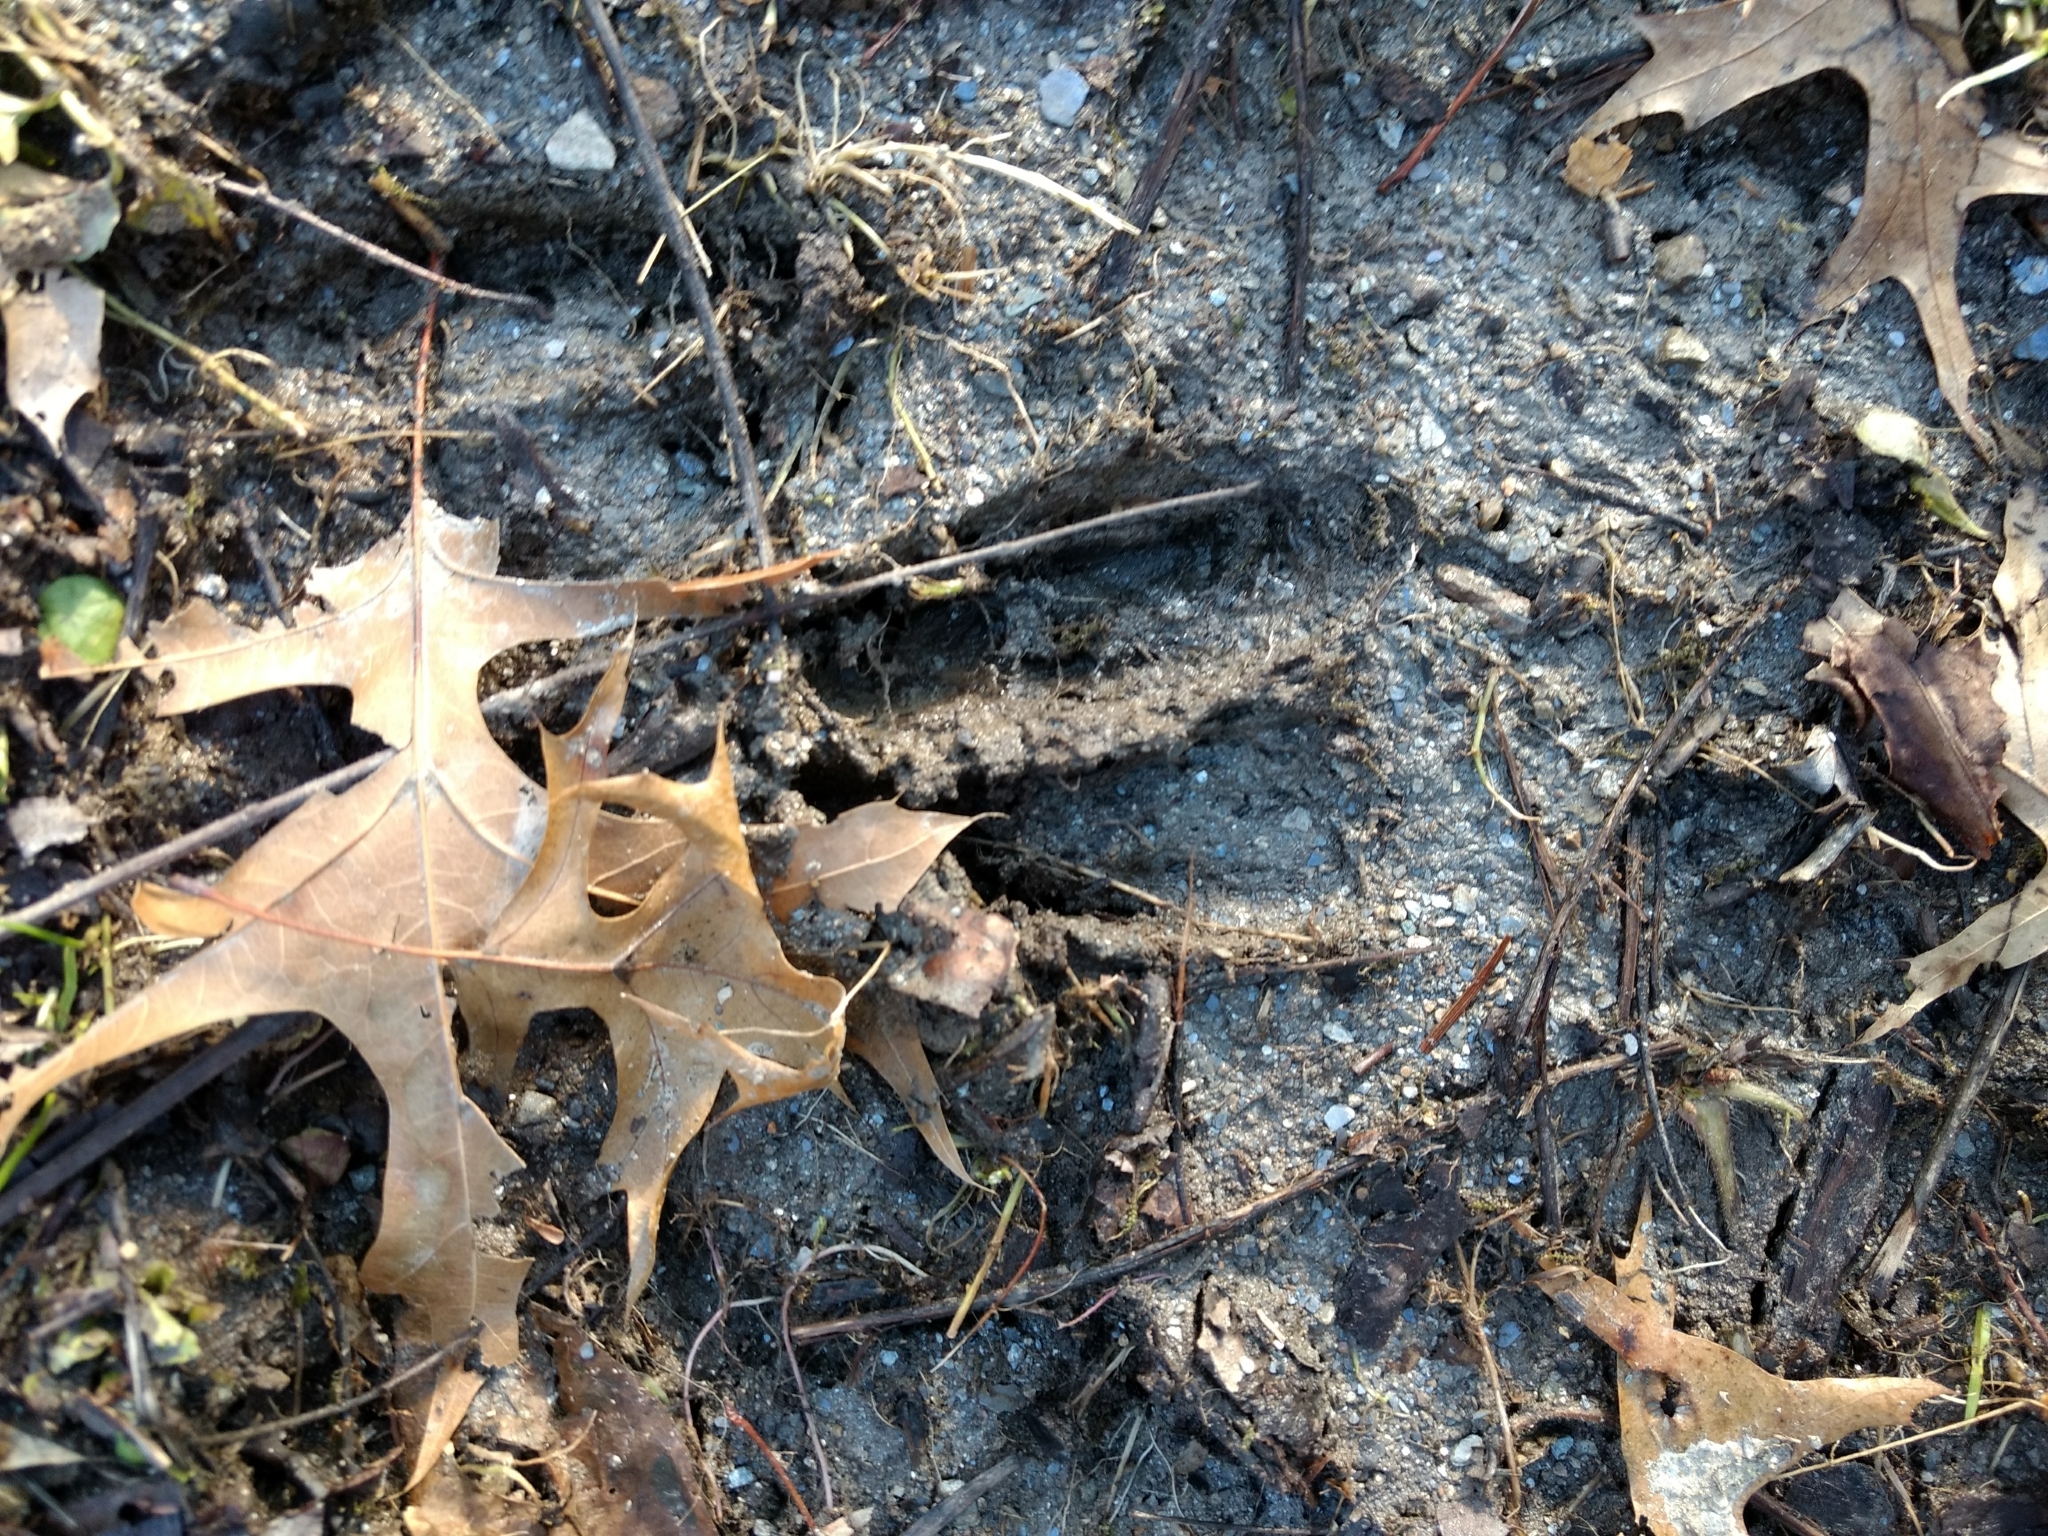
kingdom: Animalia
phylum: Chordata
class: Mammalia
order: Artiodactyla
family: Cervidae
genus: Odocoileus
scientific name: Odocoileus virginianus
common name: White-tailed deer
